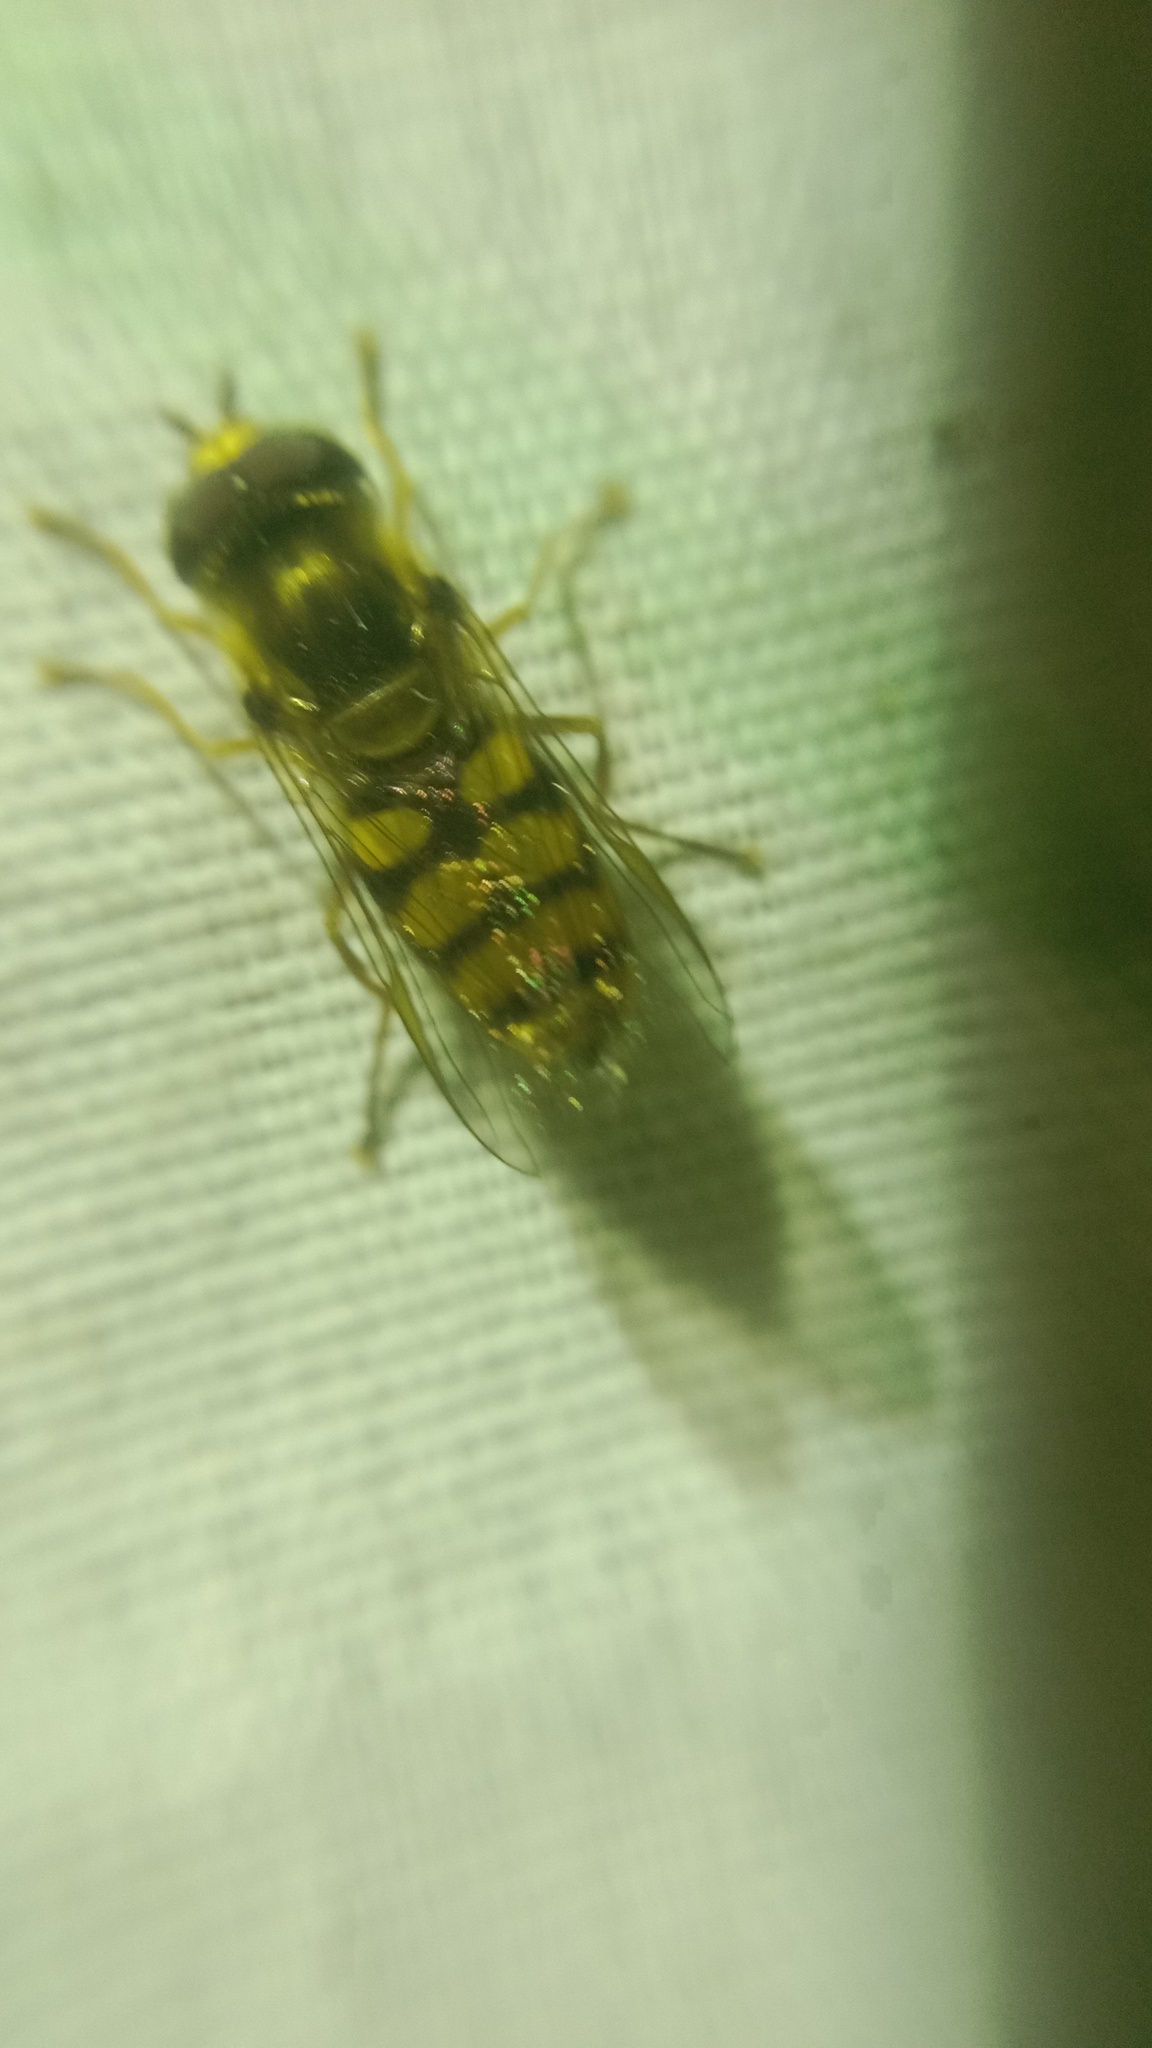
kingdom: Animalia
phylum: Arthropoda
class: Insecta
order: Diptera
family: Syrphidae
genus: Eupeodes
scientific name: Eupeodes corollae
